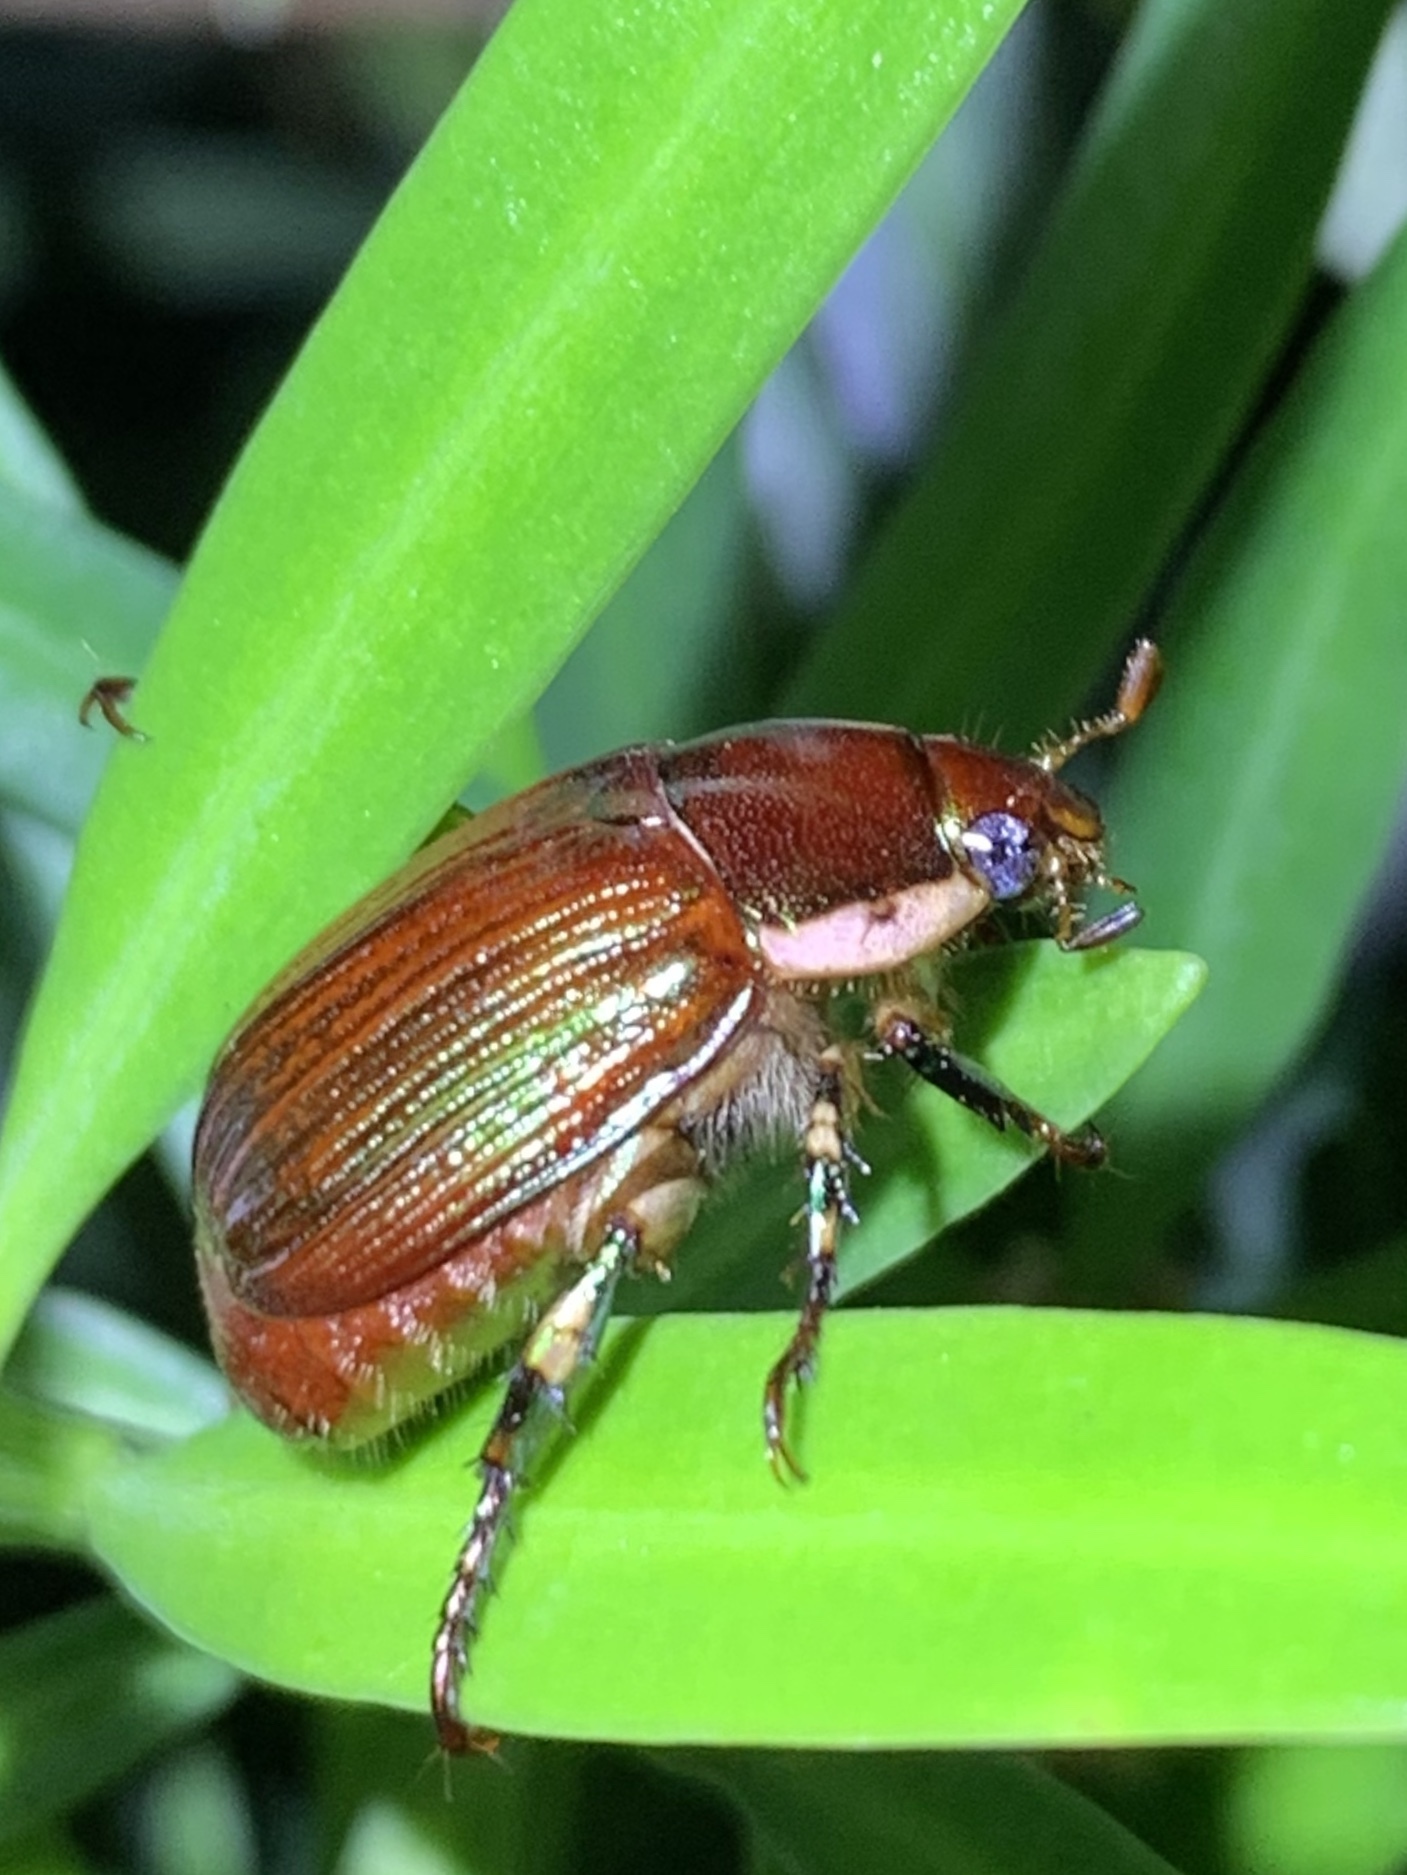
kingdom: Animalia
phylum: Arthropoda
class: Insecta
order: Coleoptera
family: Scarabaeidae
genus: Callistethus
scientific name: Callistethus marginatus
